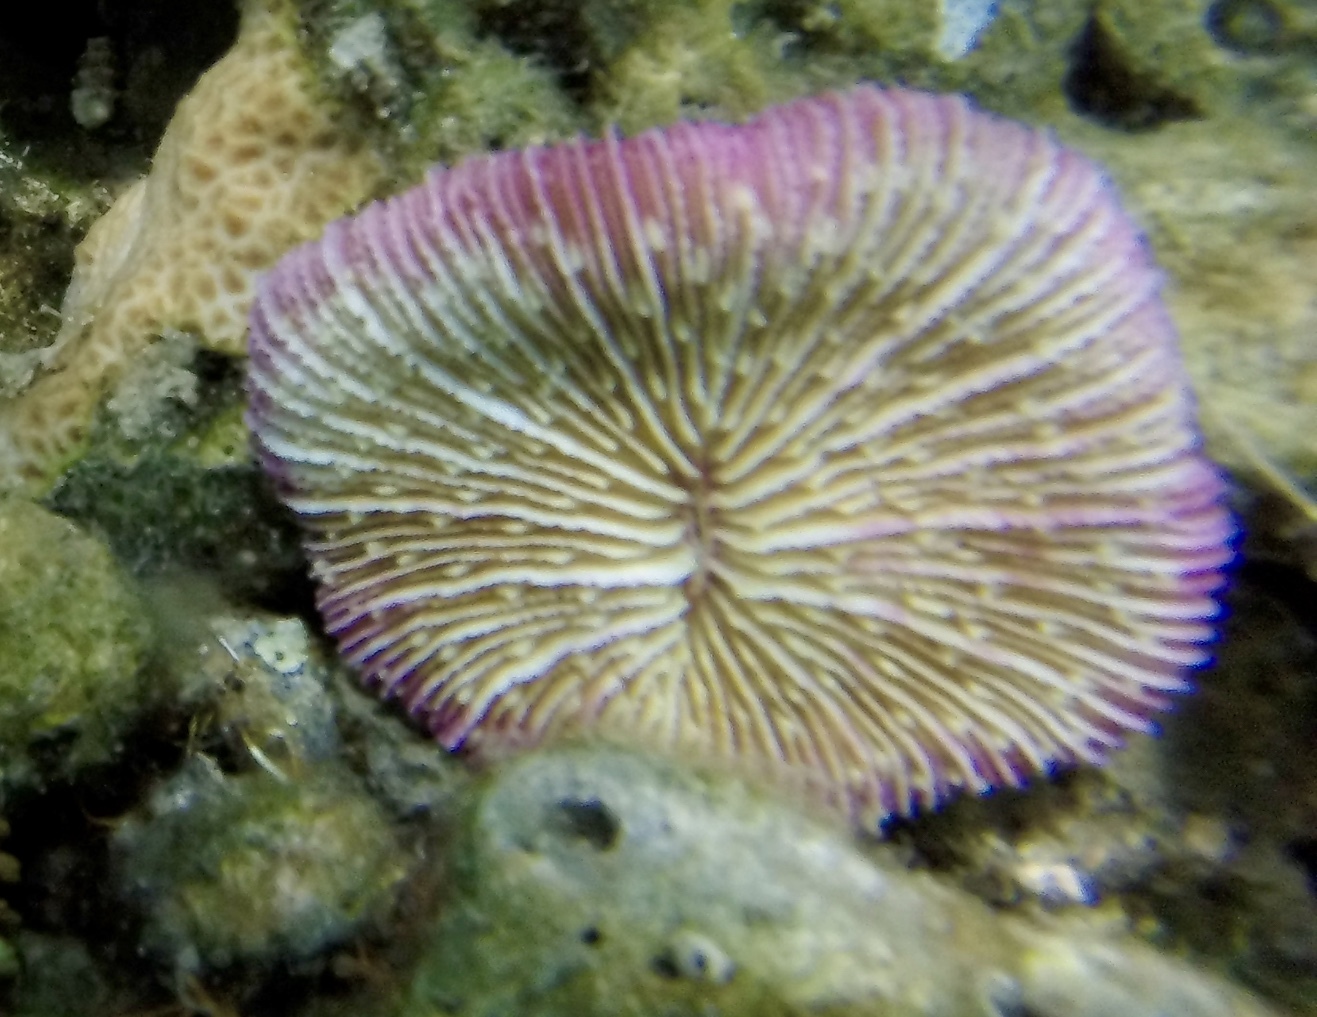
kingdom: Animalia
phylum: Cnidaria
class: Anthozoa
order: Scleractinia
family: Fungiidae
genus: Fungia
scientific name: Fungia fungites
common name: Mushroom coral
